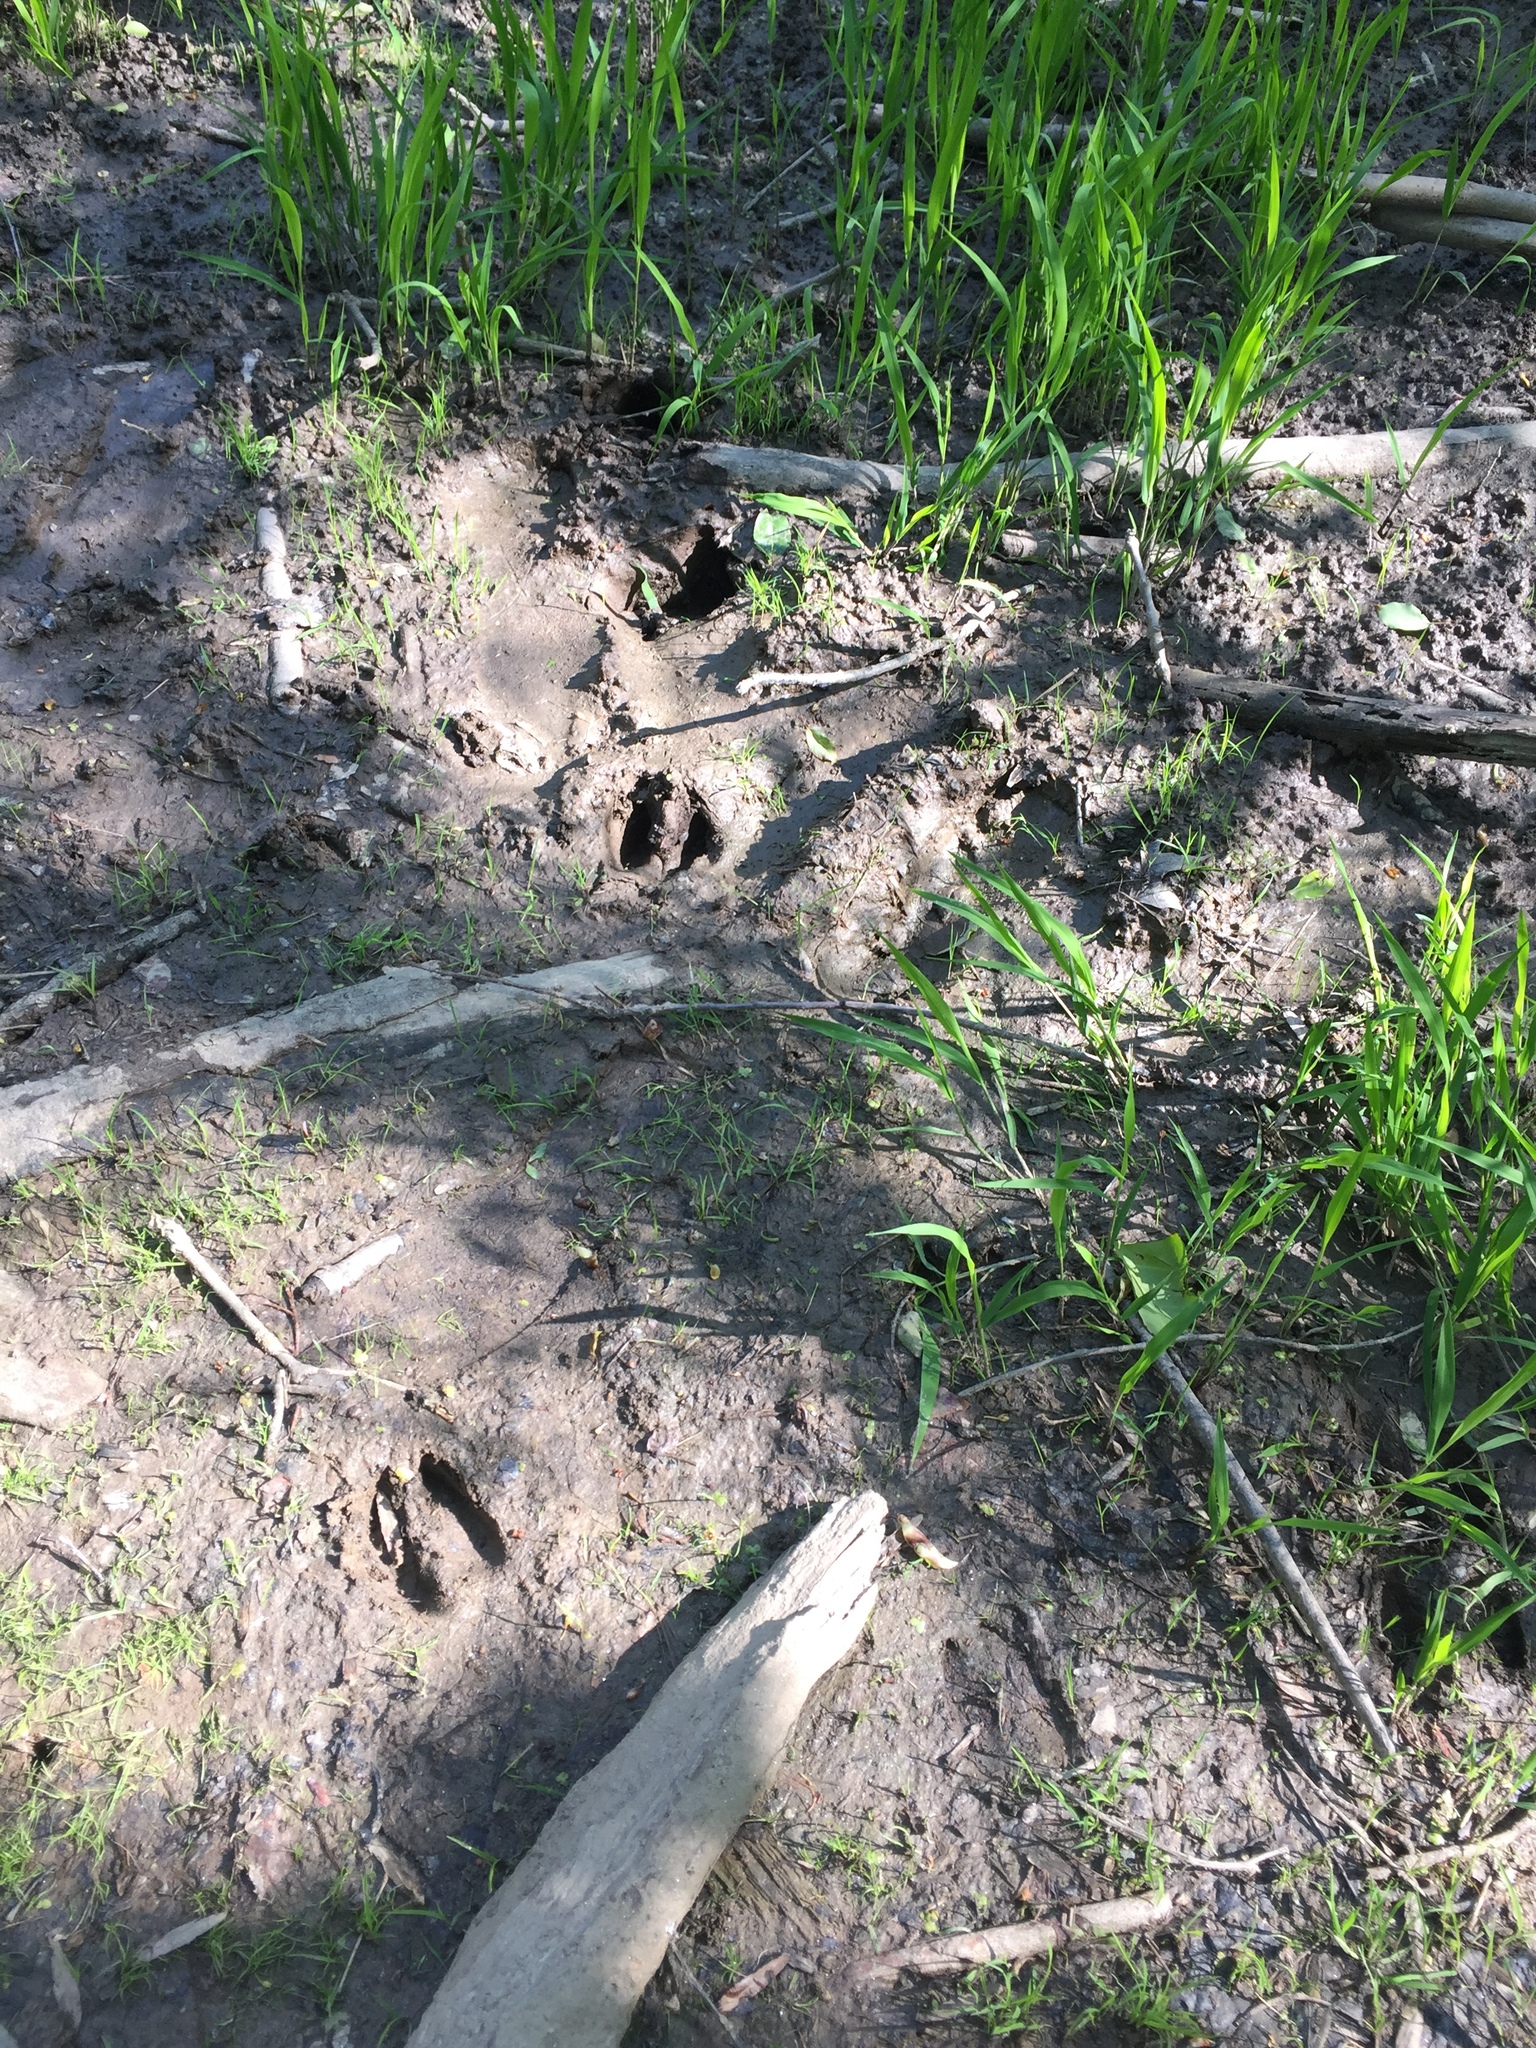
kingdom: Animalia
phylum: Chordata
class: Mammalia
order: Artiodactyla
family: Cervidae
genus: Odocoileus
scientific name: Odocoileus virginianus
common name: White-tailed deer
